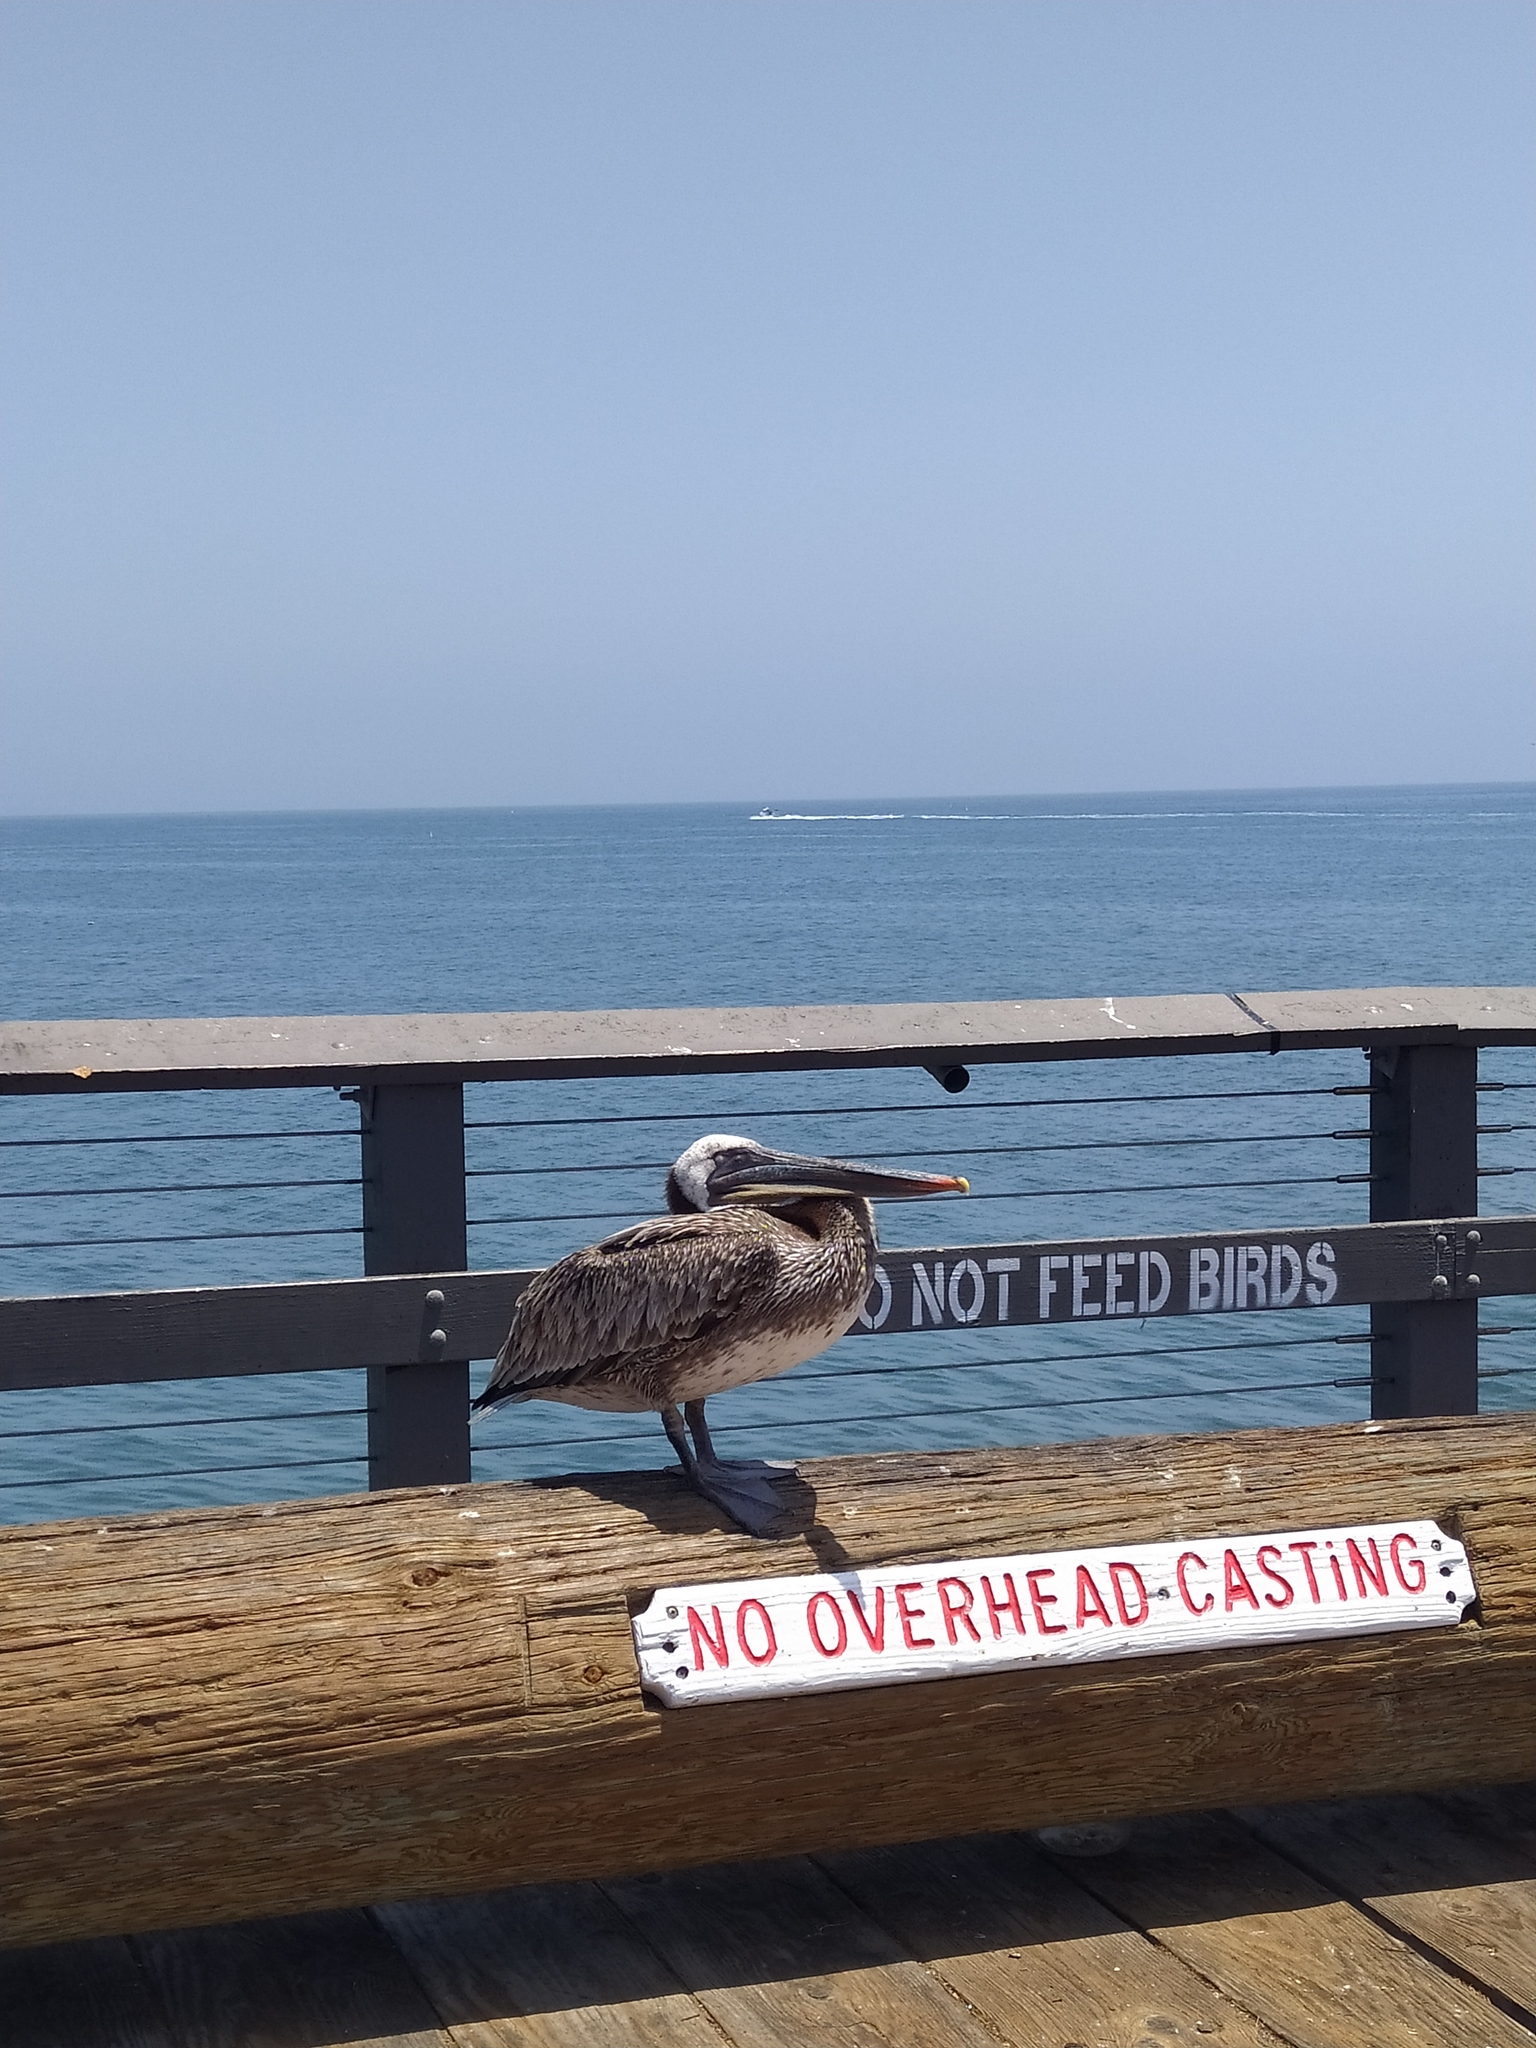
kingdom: Animalia
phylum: Chordata
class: Aves
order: Pelecaniformes
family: Pelecanidae
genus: Pelecanus
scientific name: Pelecanus occidentalis
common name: Brown pelican
